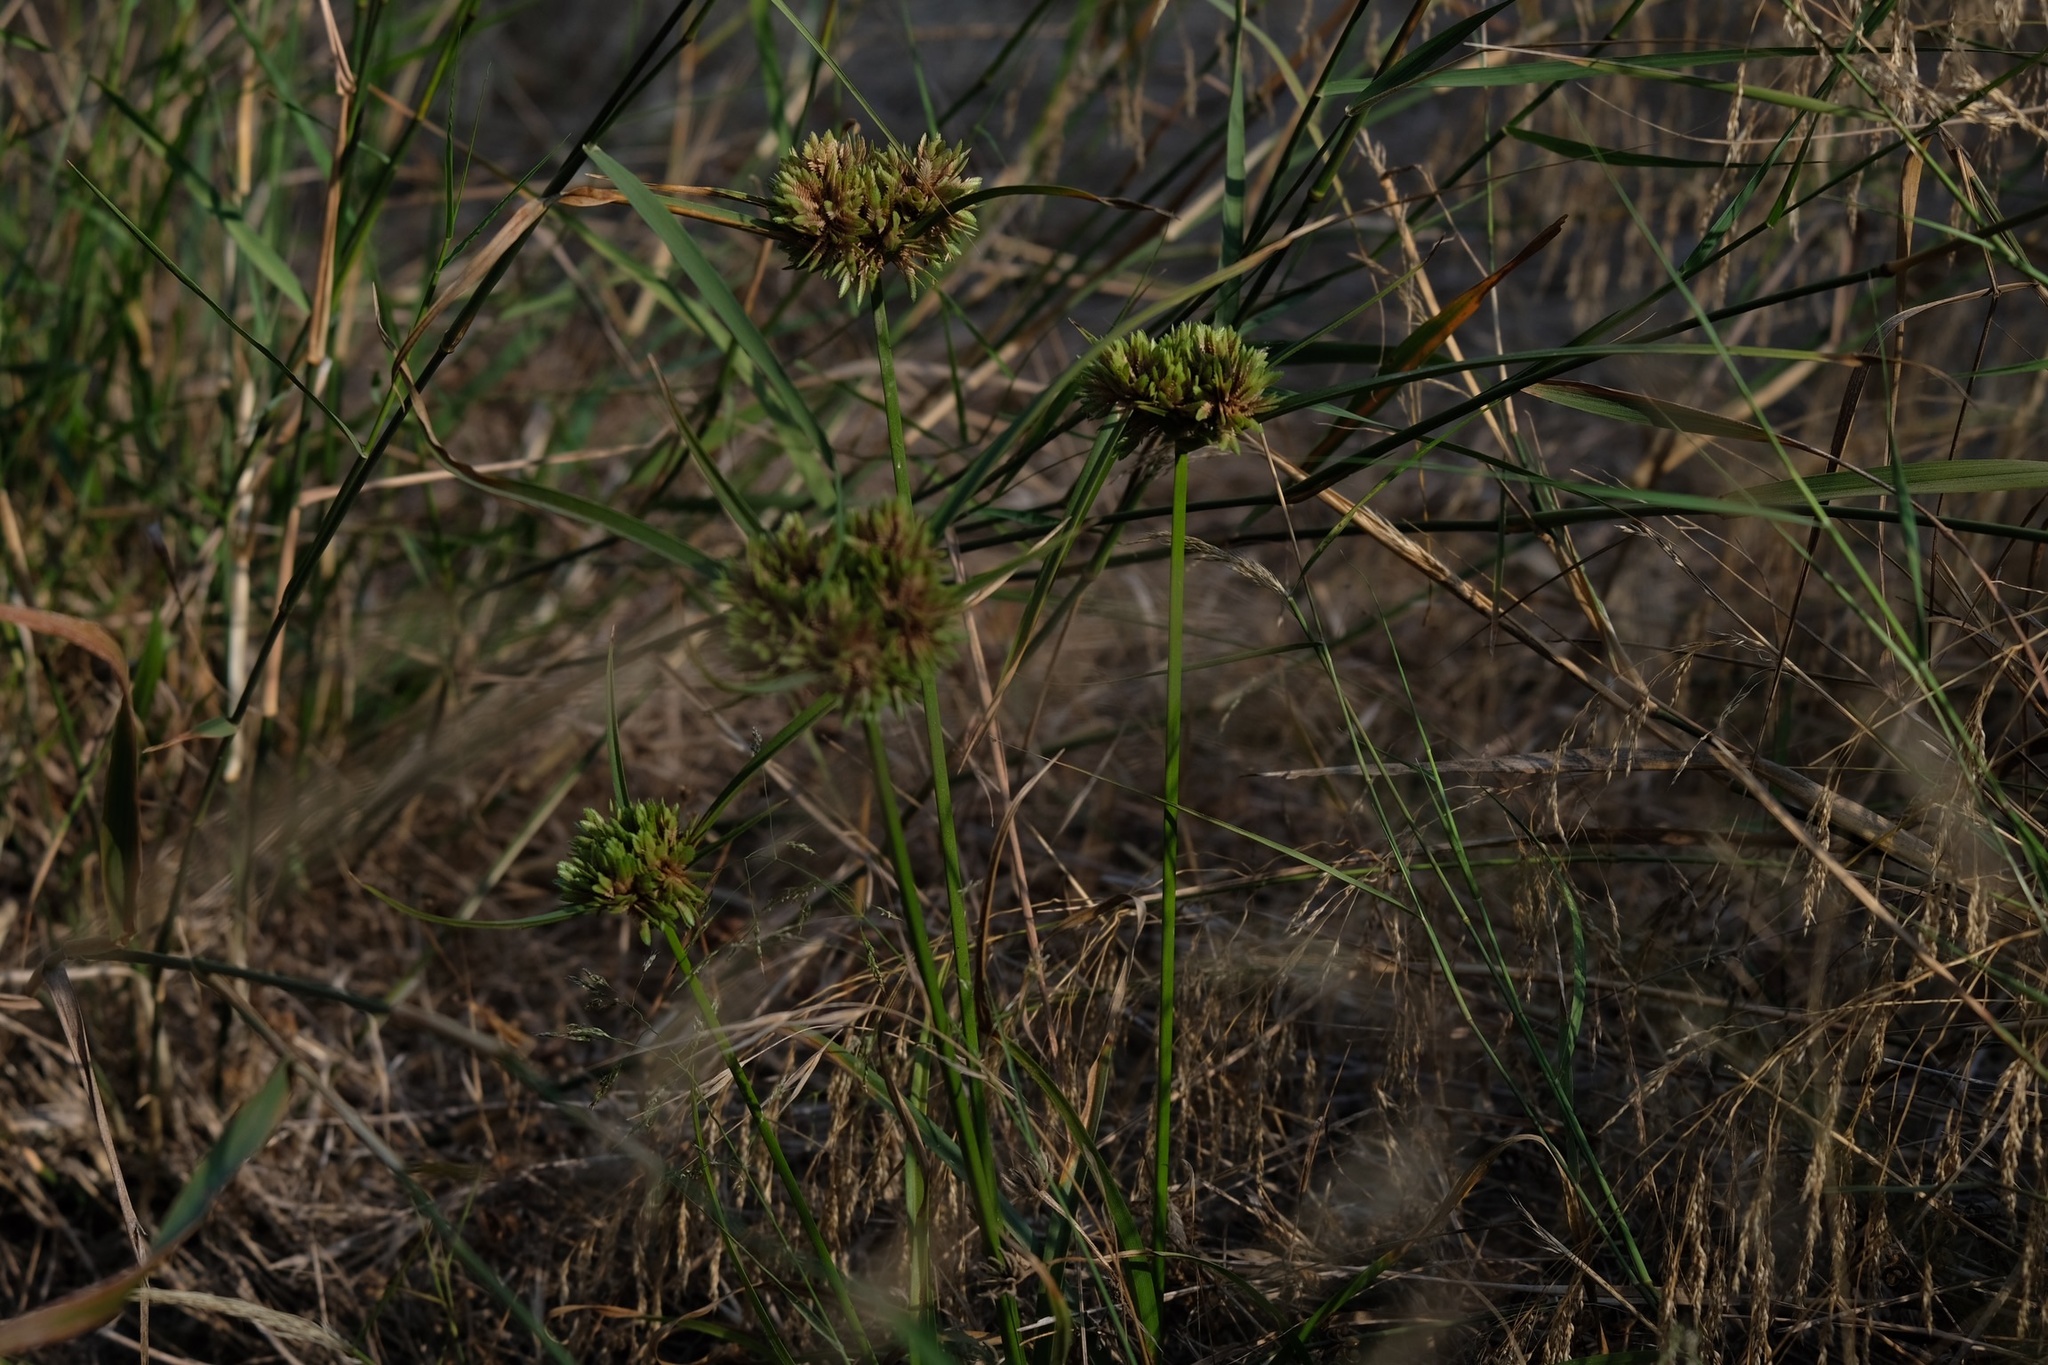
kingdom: Plantae
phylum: Tracheophyta
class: Liliopsida
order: Poales
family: Cyperaceae
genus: Cyperus
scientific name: Cyperus eragrostis
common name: Tall flatsedge
